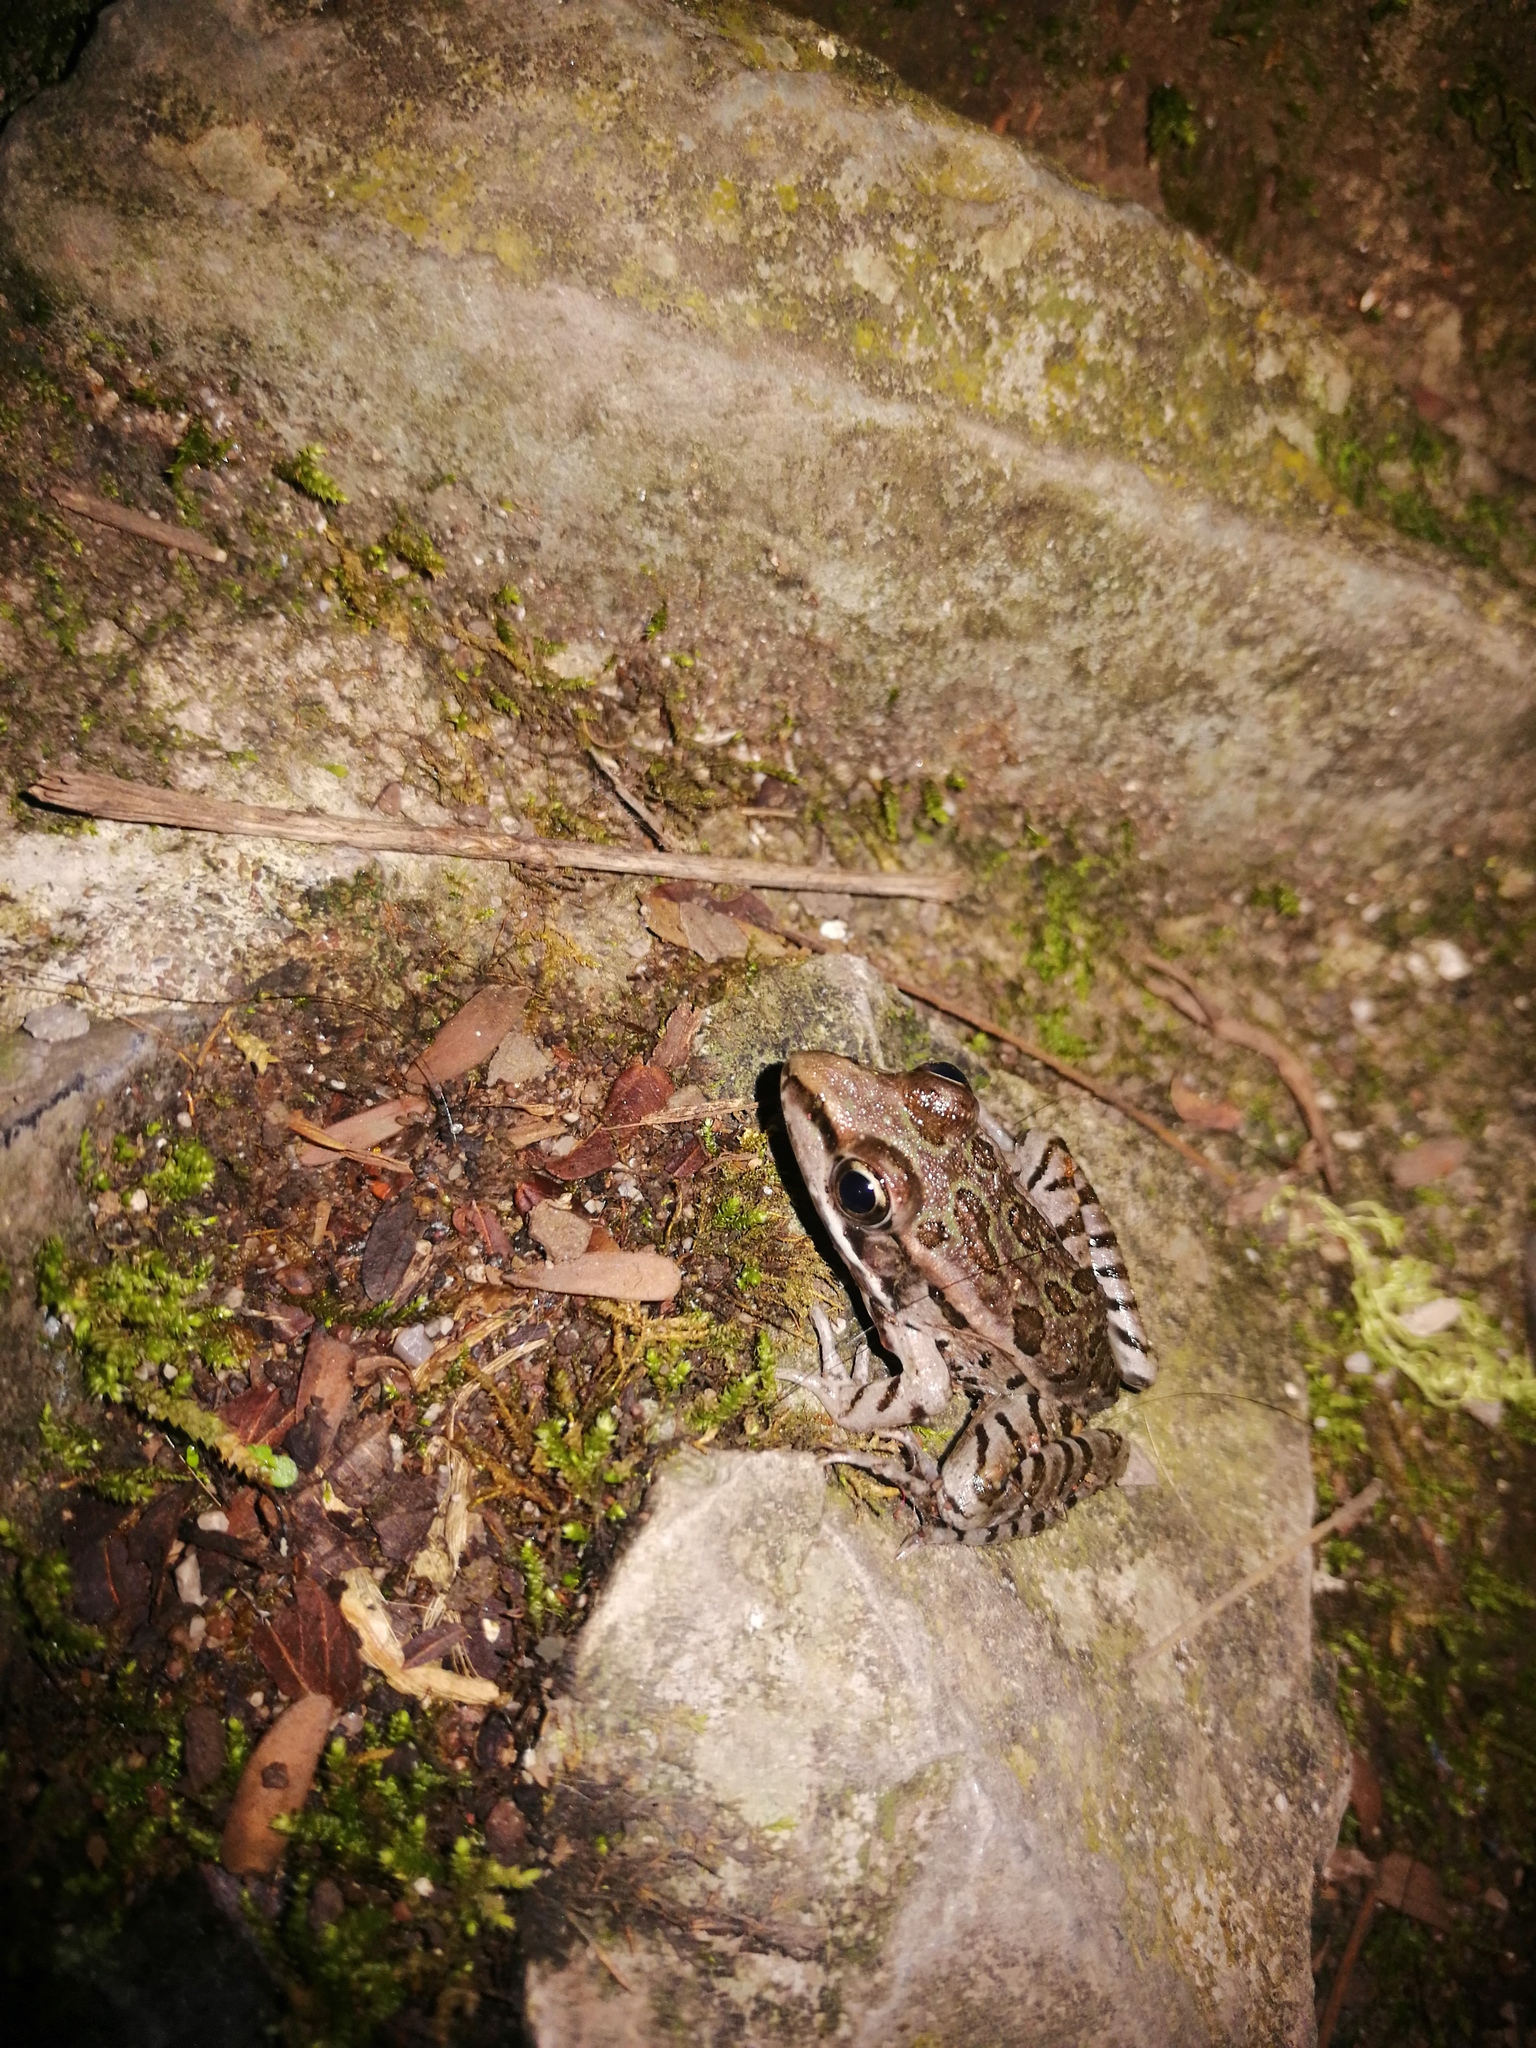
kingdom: Animalia
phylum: Chordata
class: Amphibia
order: Anura
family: Ranidae
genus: Lithobates
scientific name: Lithobates berlandieri
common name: Rio grande leopard frog
